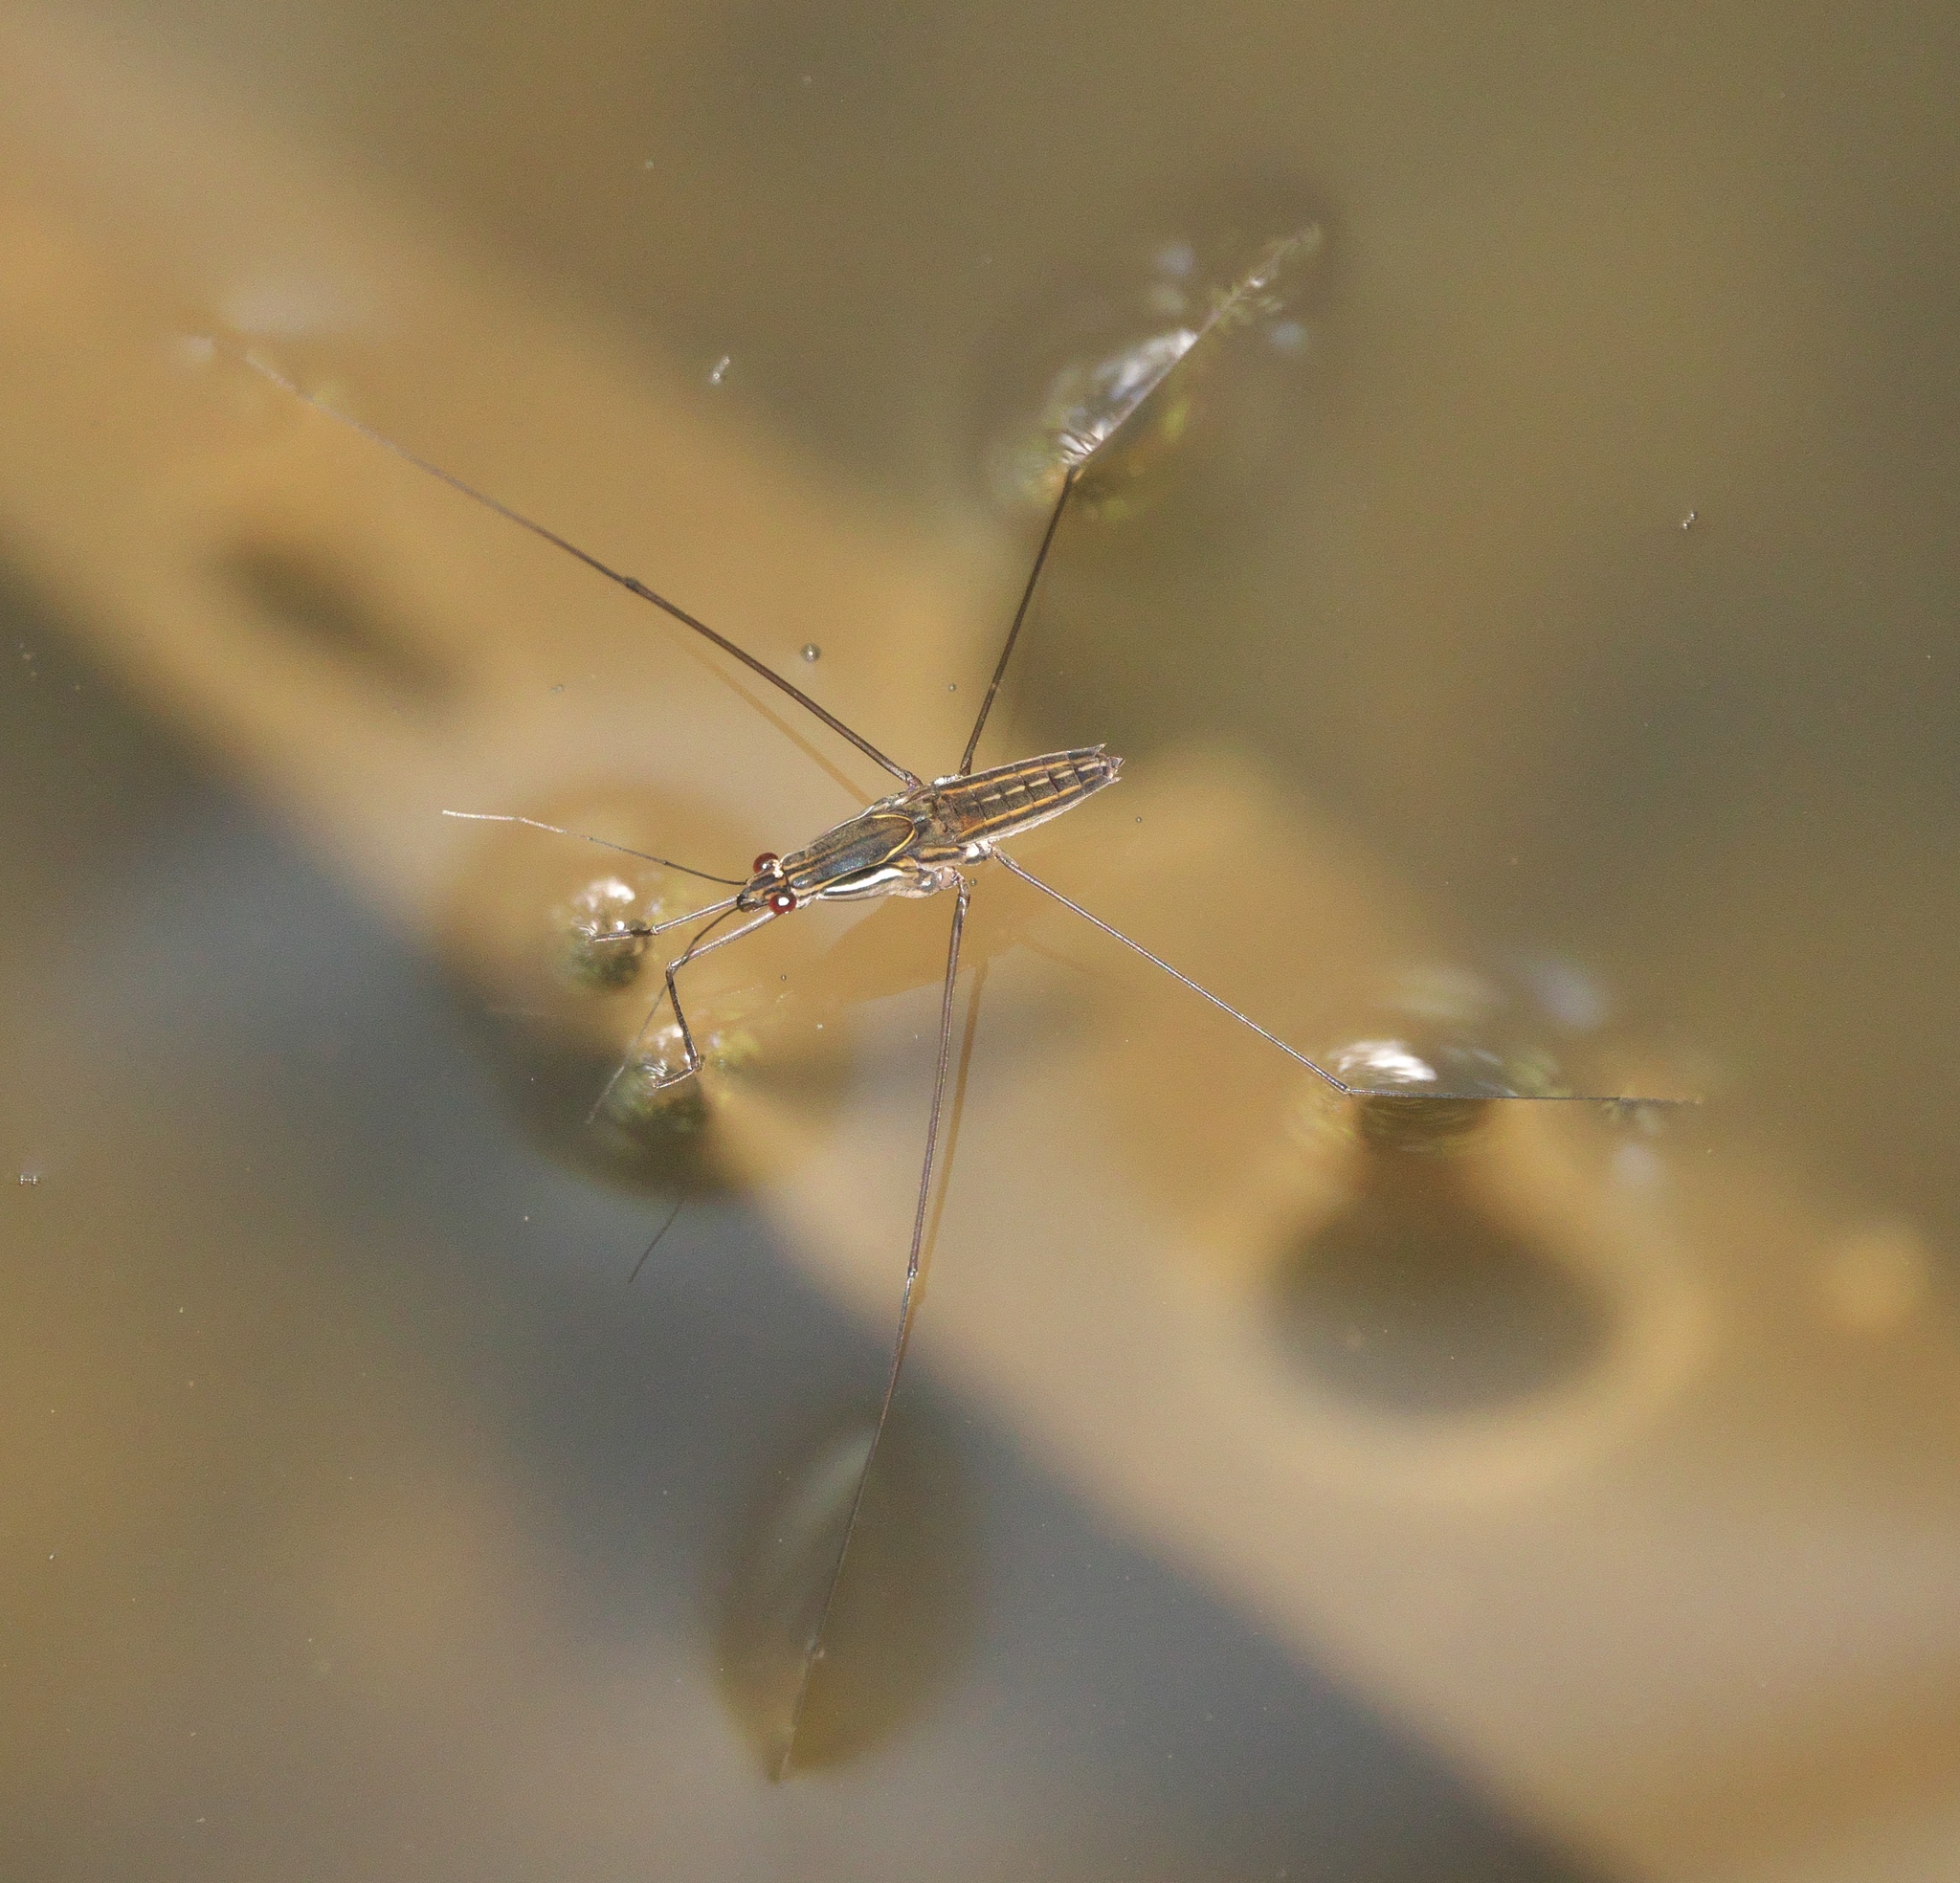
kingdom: Animalia
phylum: Arthropoda
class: Insecta
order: Hemiptera
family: Gerridae
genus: Limnometra
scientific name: Limnometra
